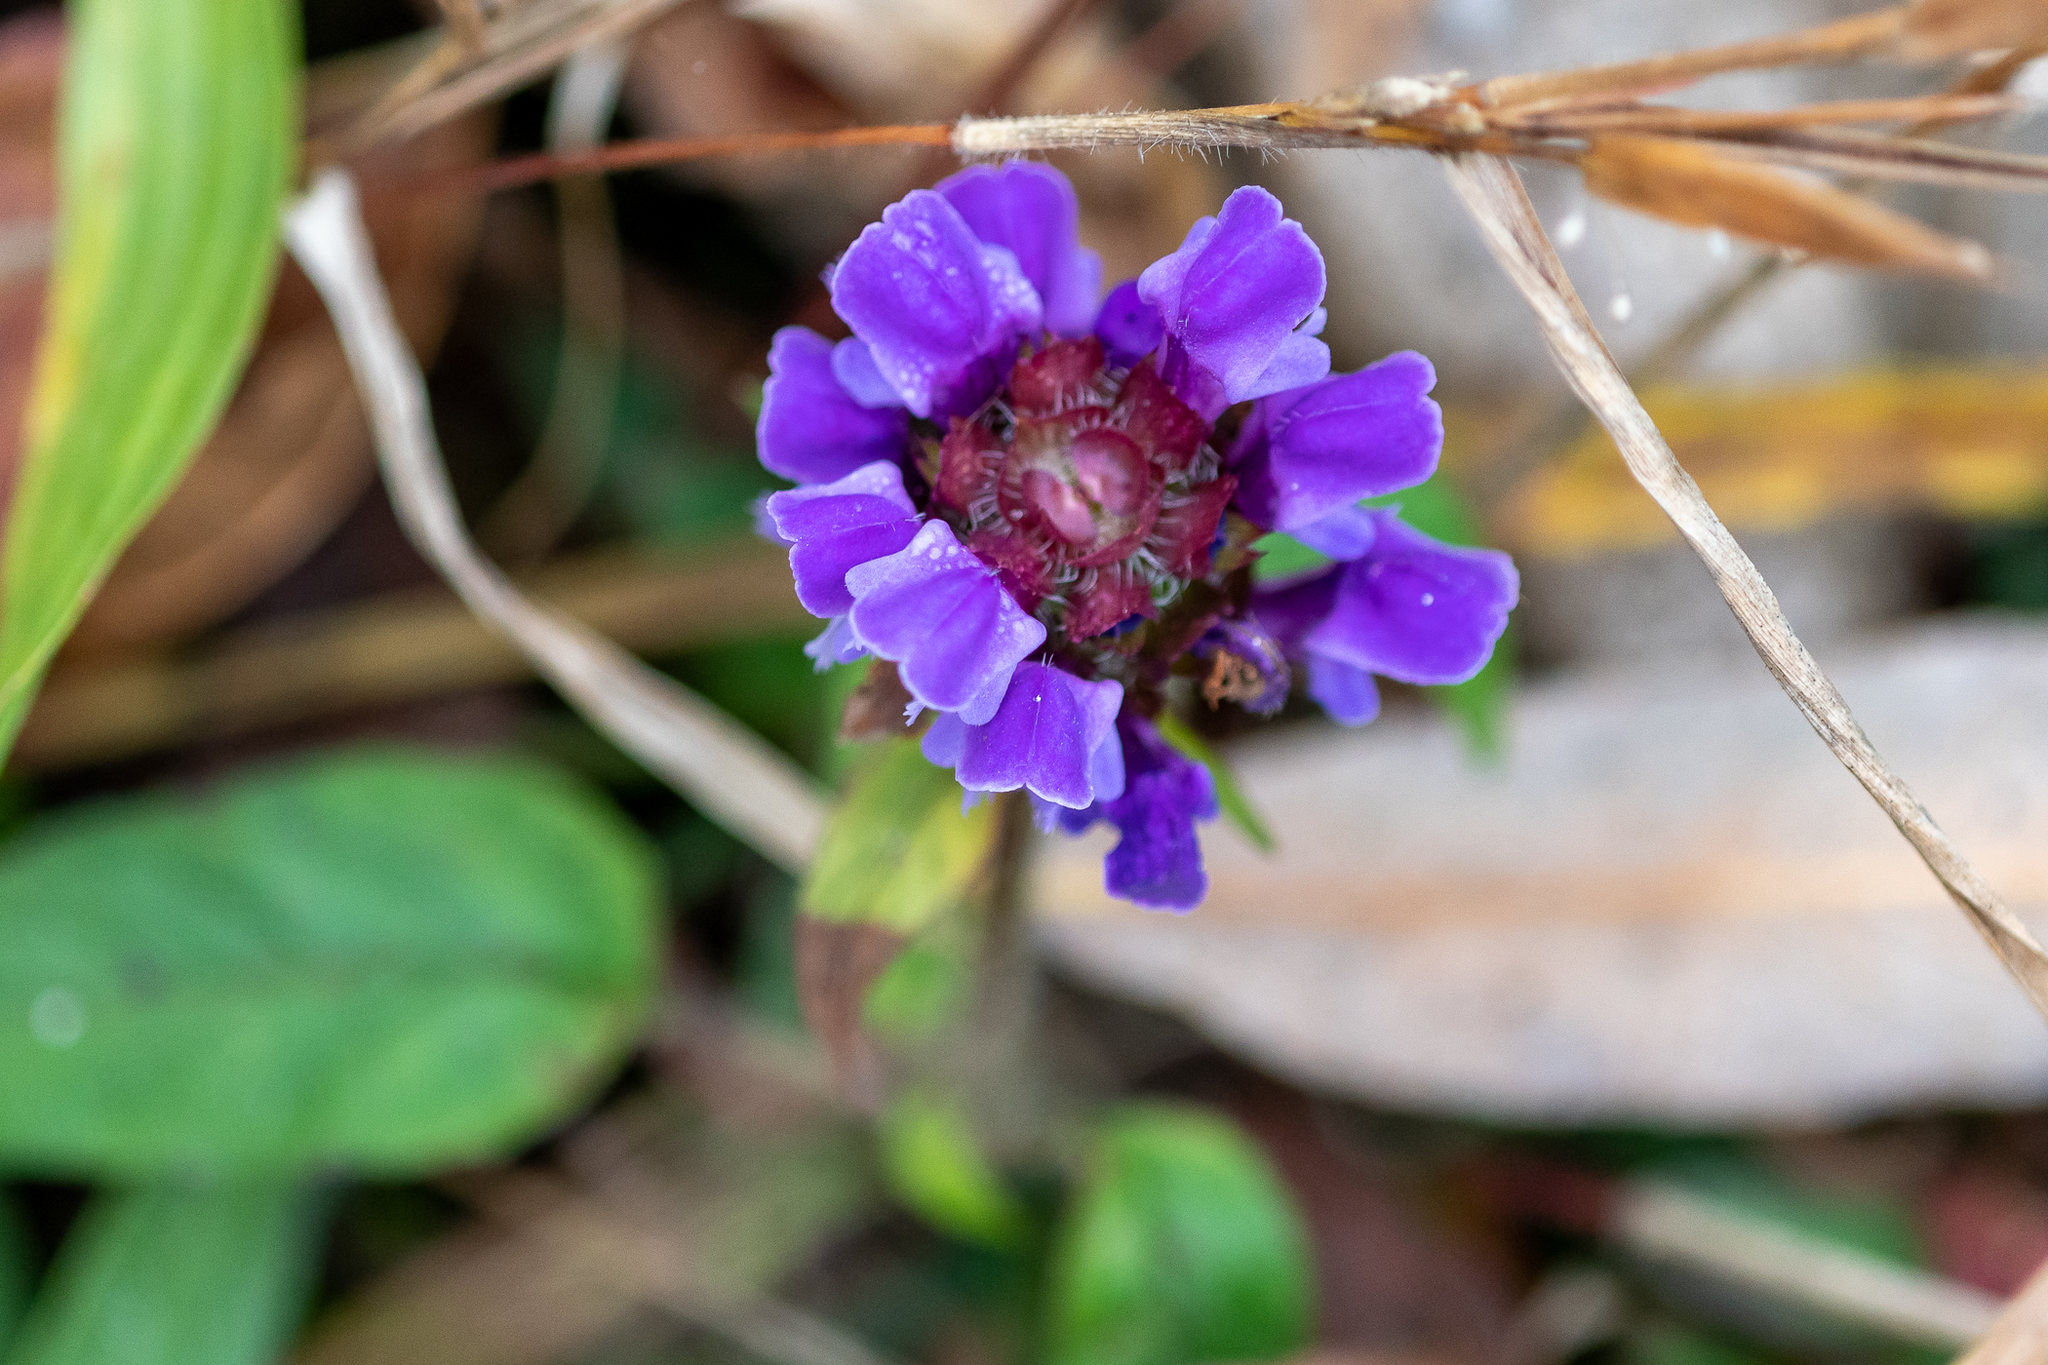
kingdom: Plantae
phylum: Tracheophyta
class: Magnoliopsida
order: Lamiales
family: Lamiaceae
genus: Prunella
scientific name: Prunella vulgaris
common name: Heal-all
